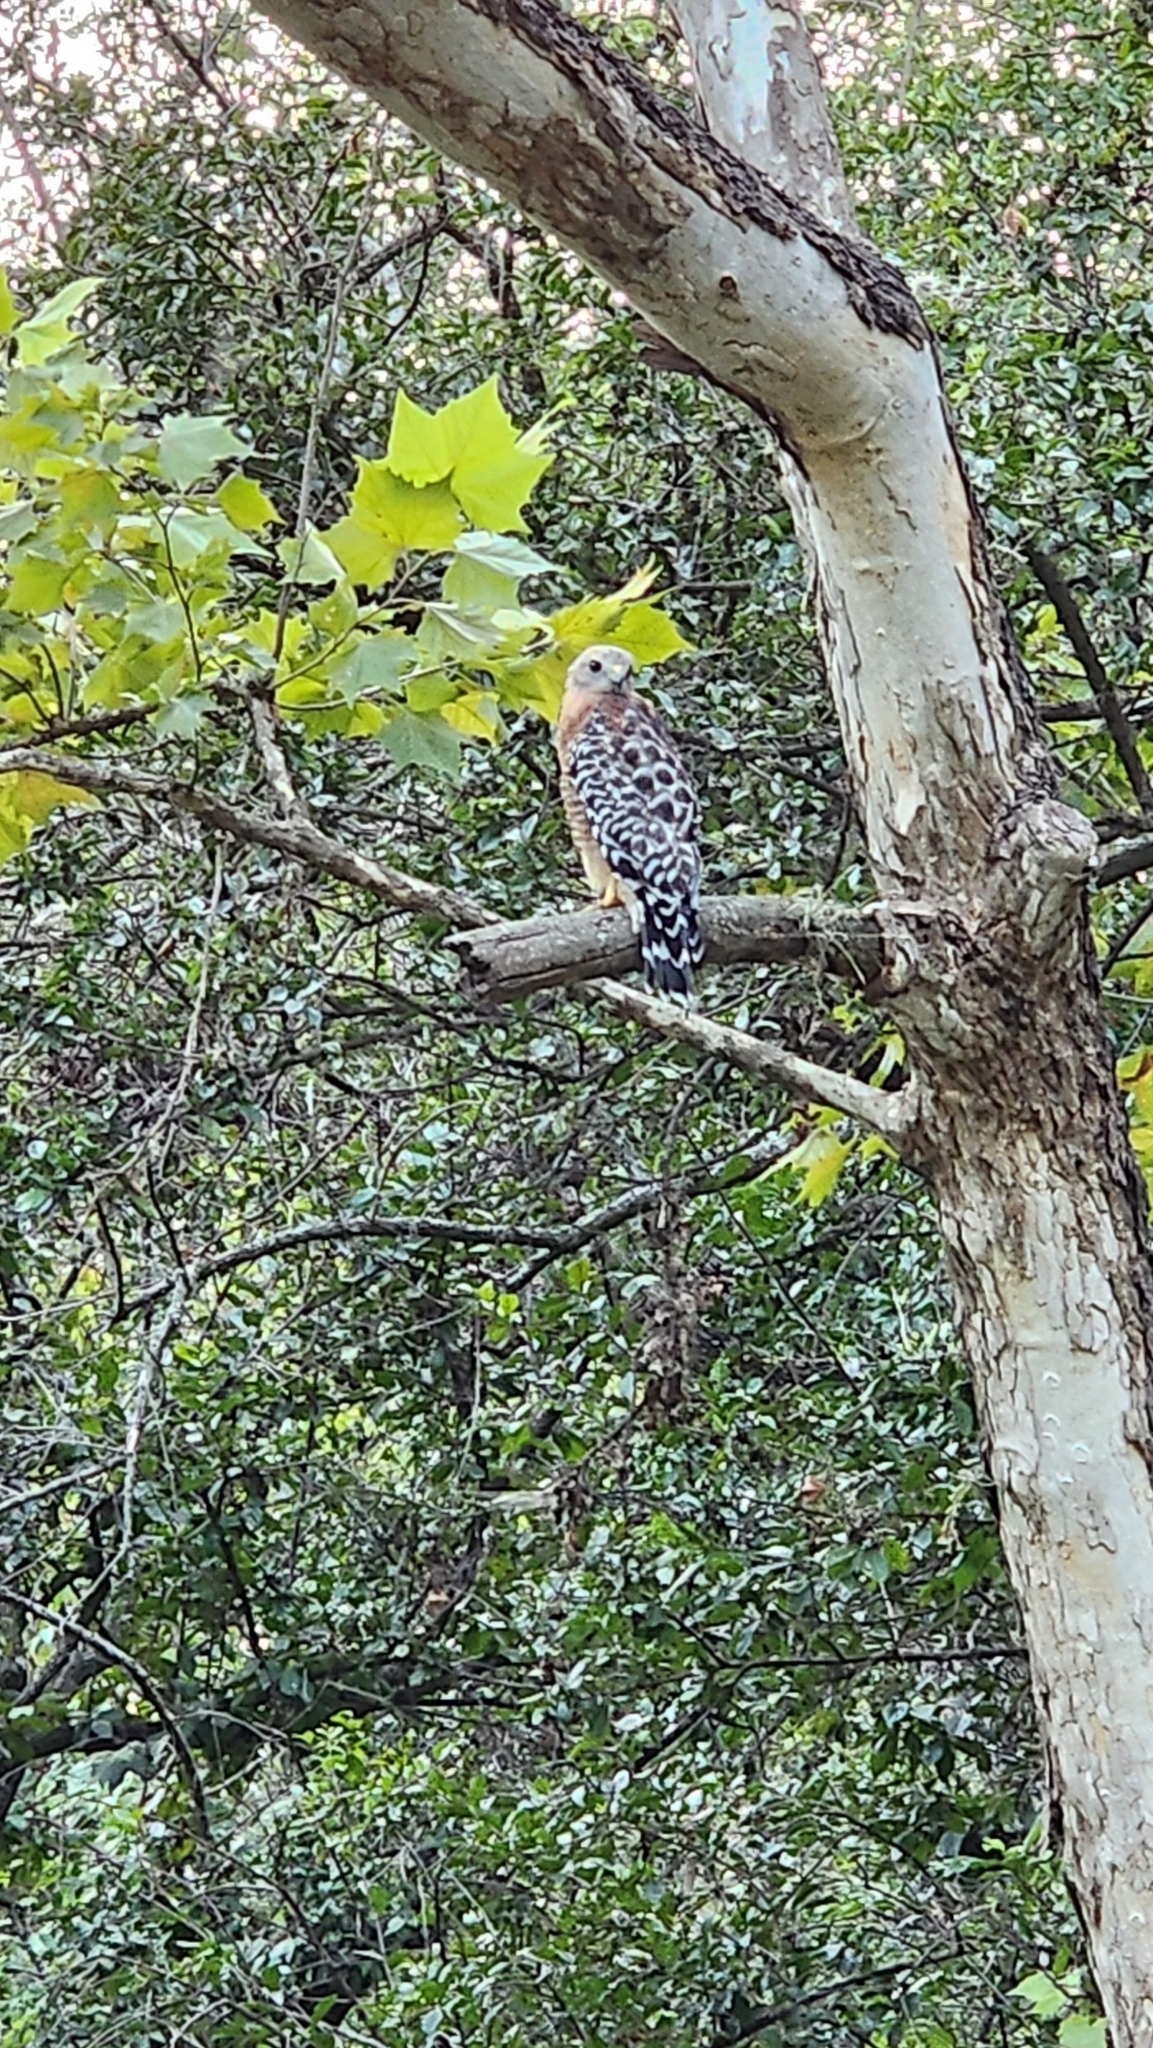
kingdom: Animalia
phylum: Chordata
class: Aves
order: Accipitriformes
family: Accipitridae
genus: Buteo
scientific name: Buteo lineatus
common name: Red-shouldered hawk
